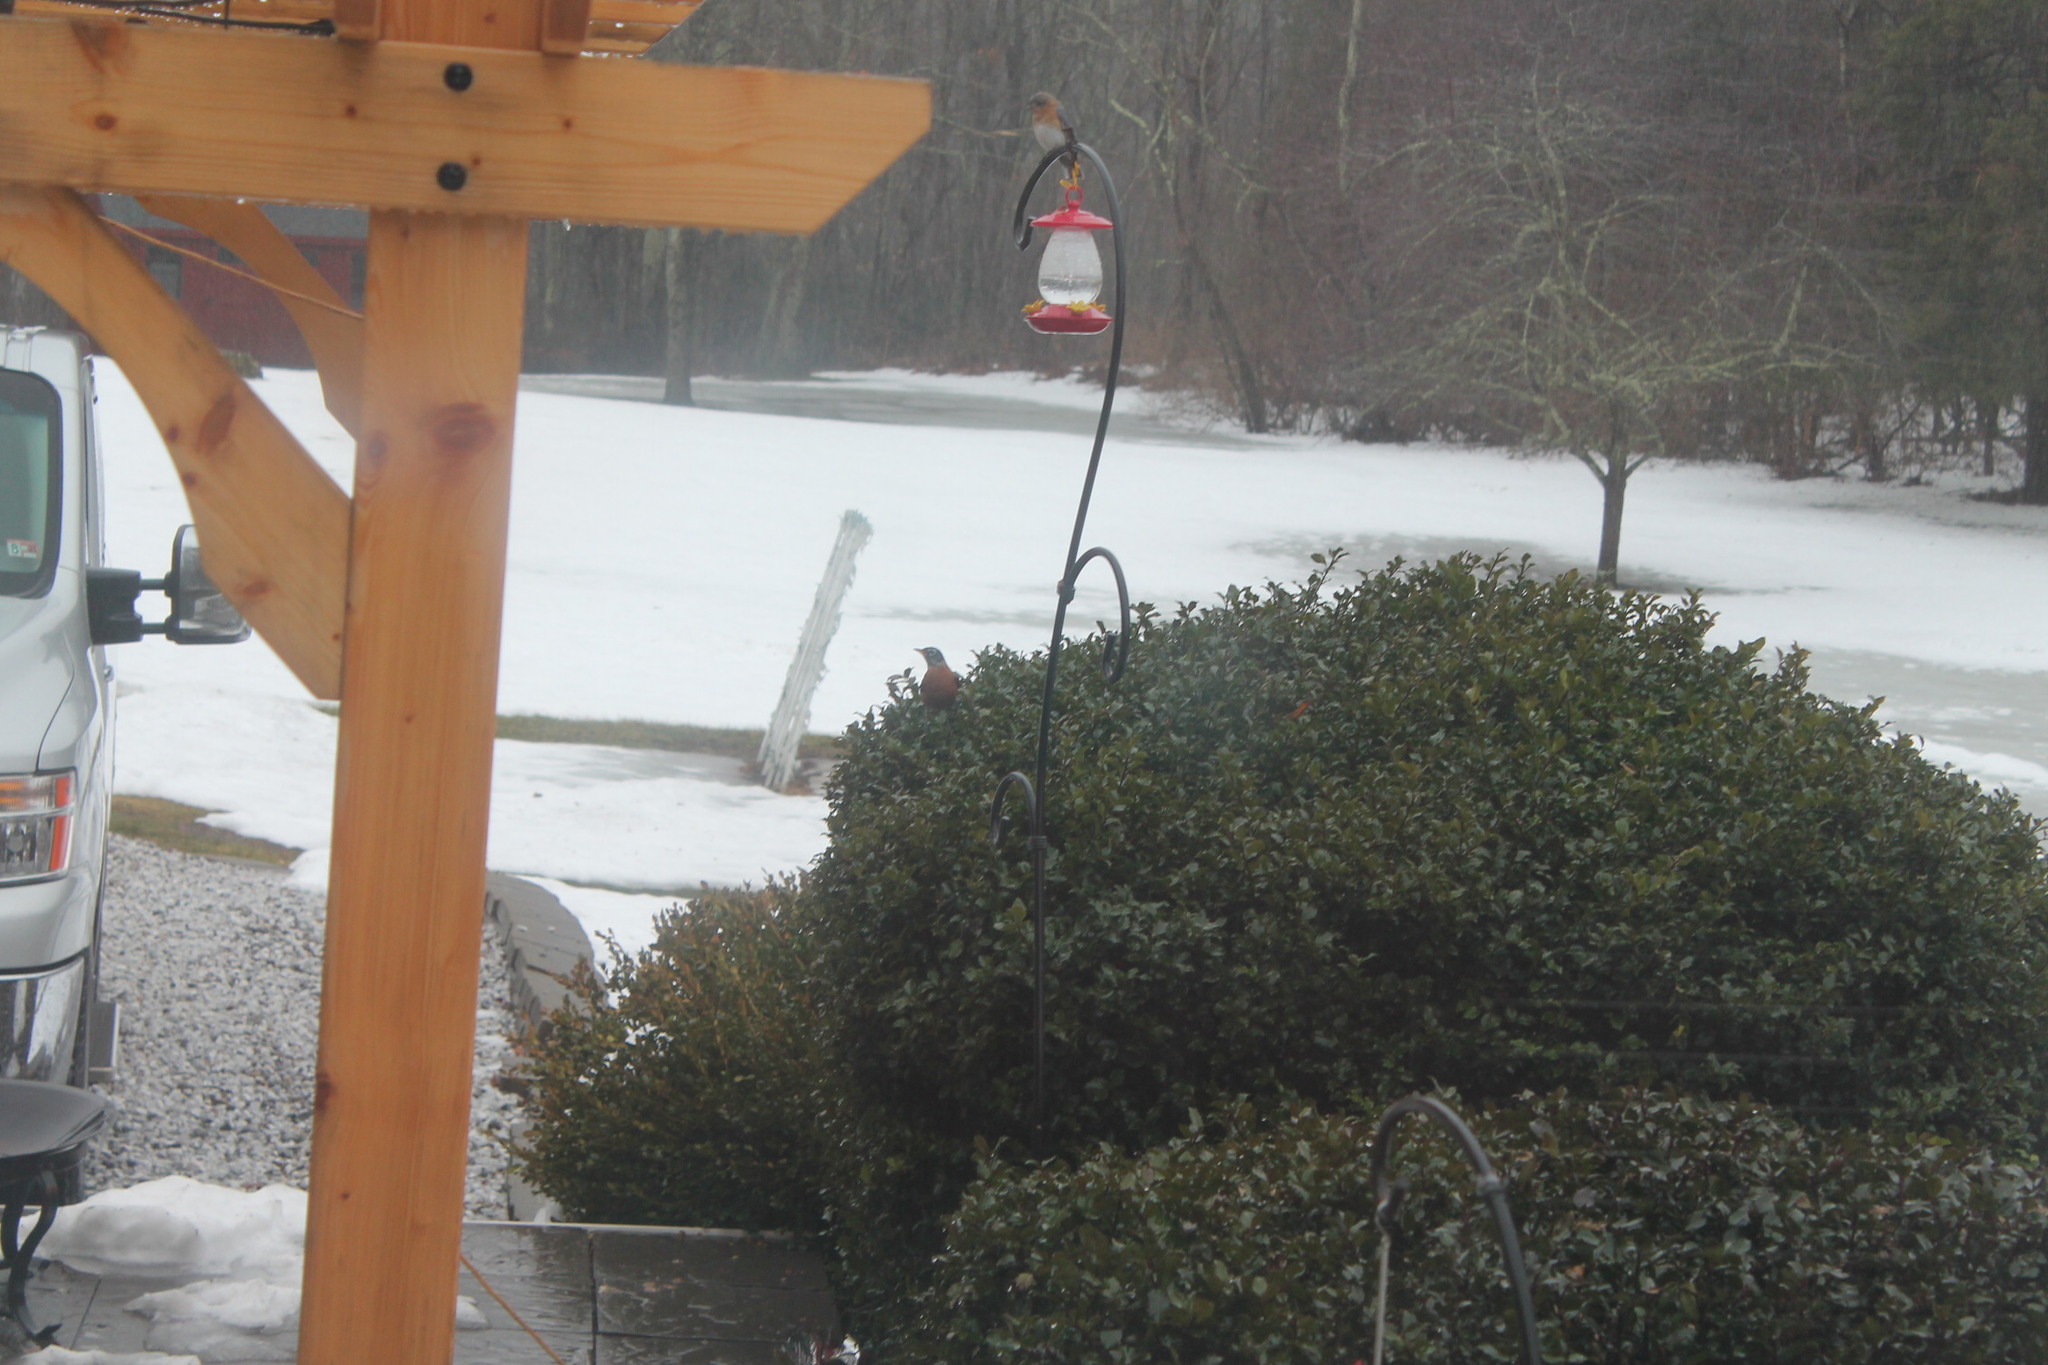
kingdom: Animalia
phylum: Chordata
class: Aves
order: Passeriformes
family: Turdidae
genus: Turdus
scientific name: Turdus migratorius
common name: American robin
